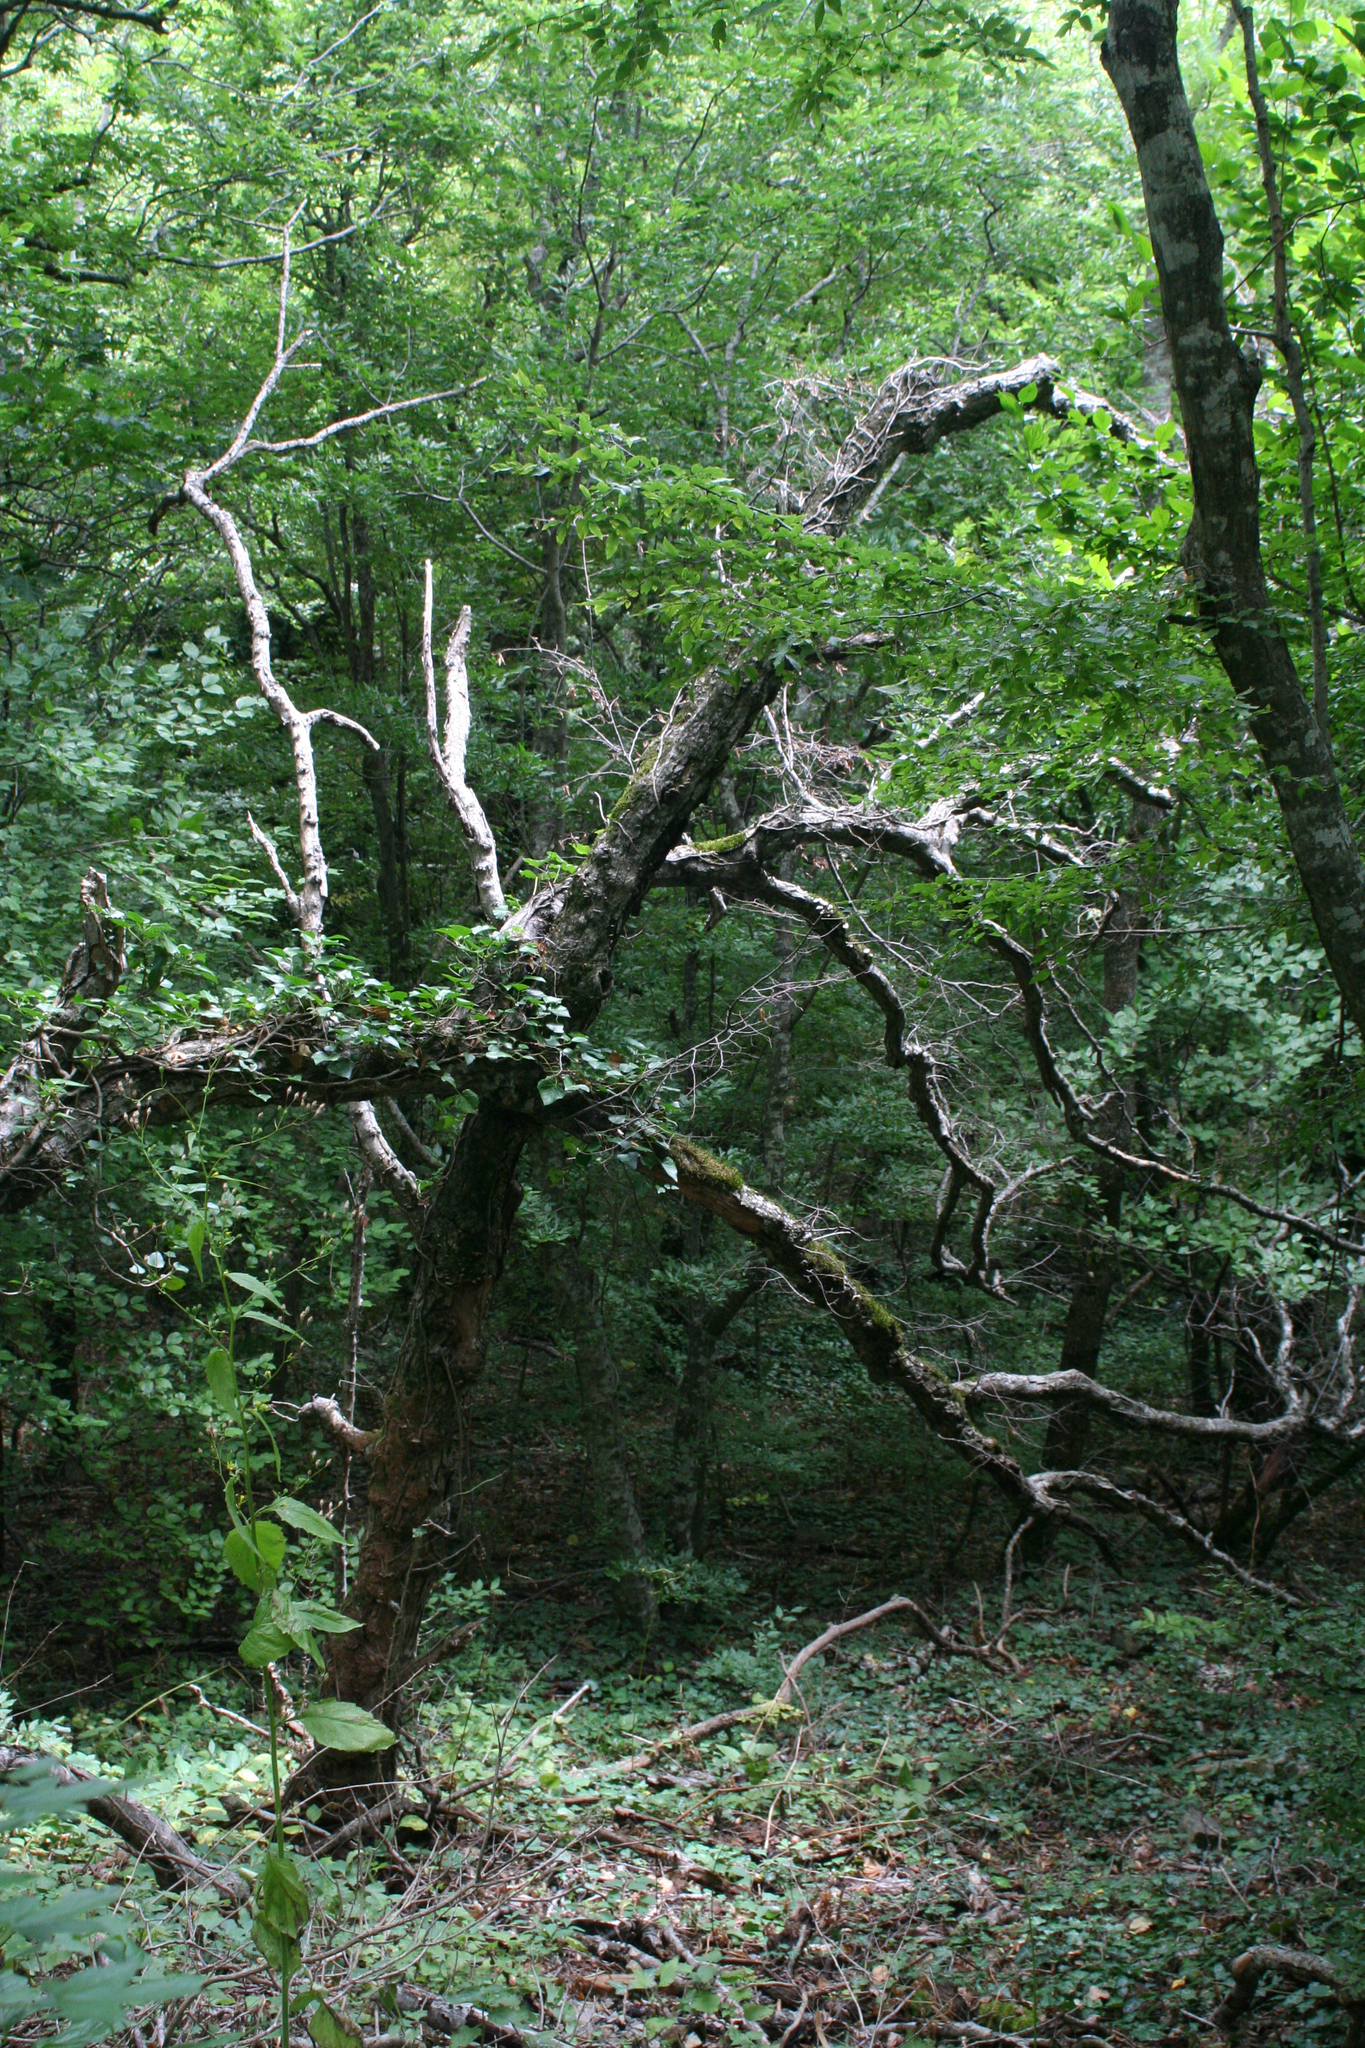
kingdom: Plantae
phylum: Tracheophyta
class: Magnoliopsida
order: Fagales
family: Betulaceae
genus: Carpinus
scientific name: Carpinus orientalis
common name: Eastern hornbeam
